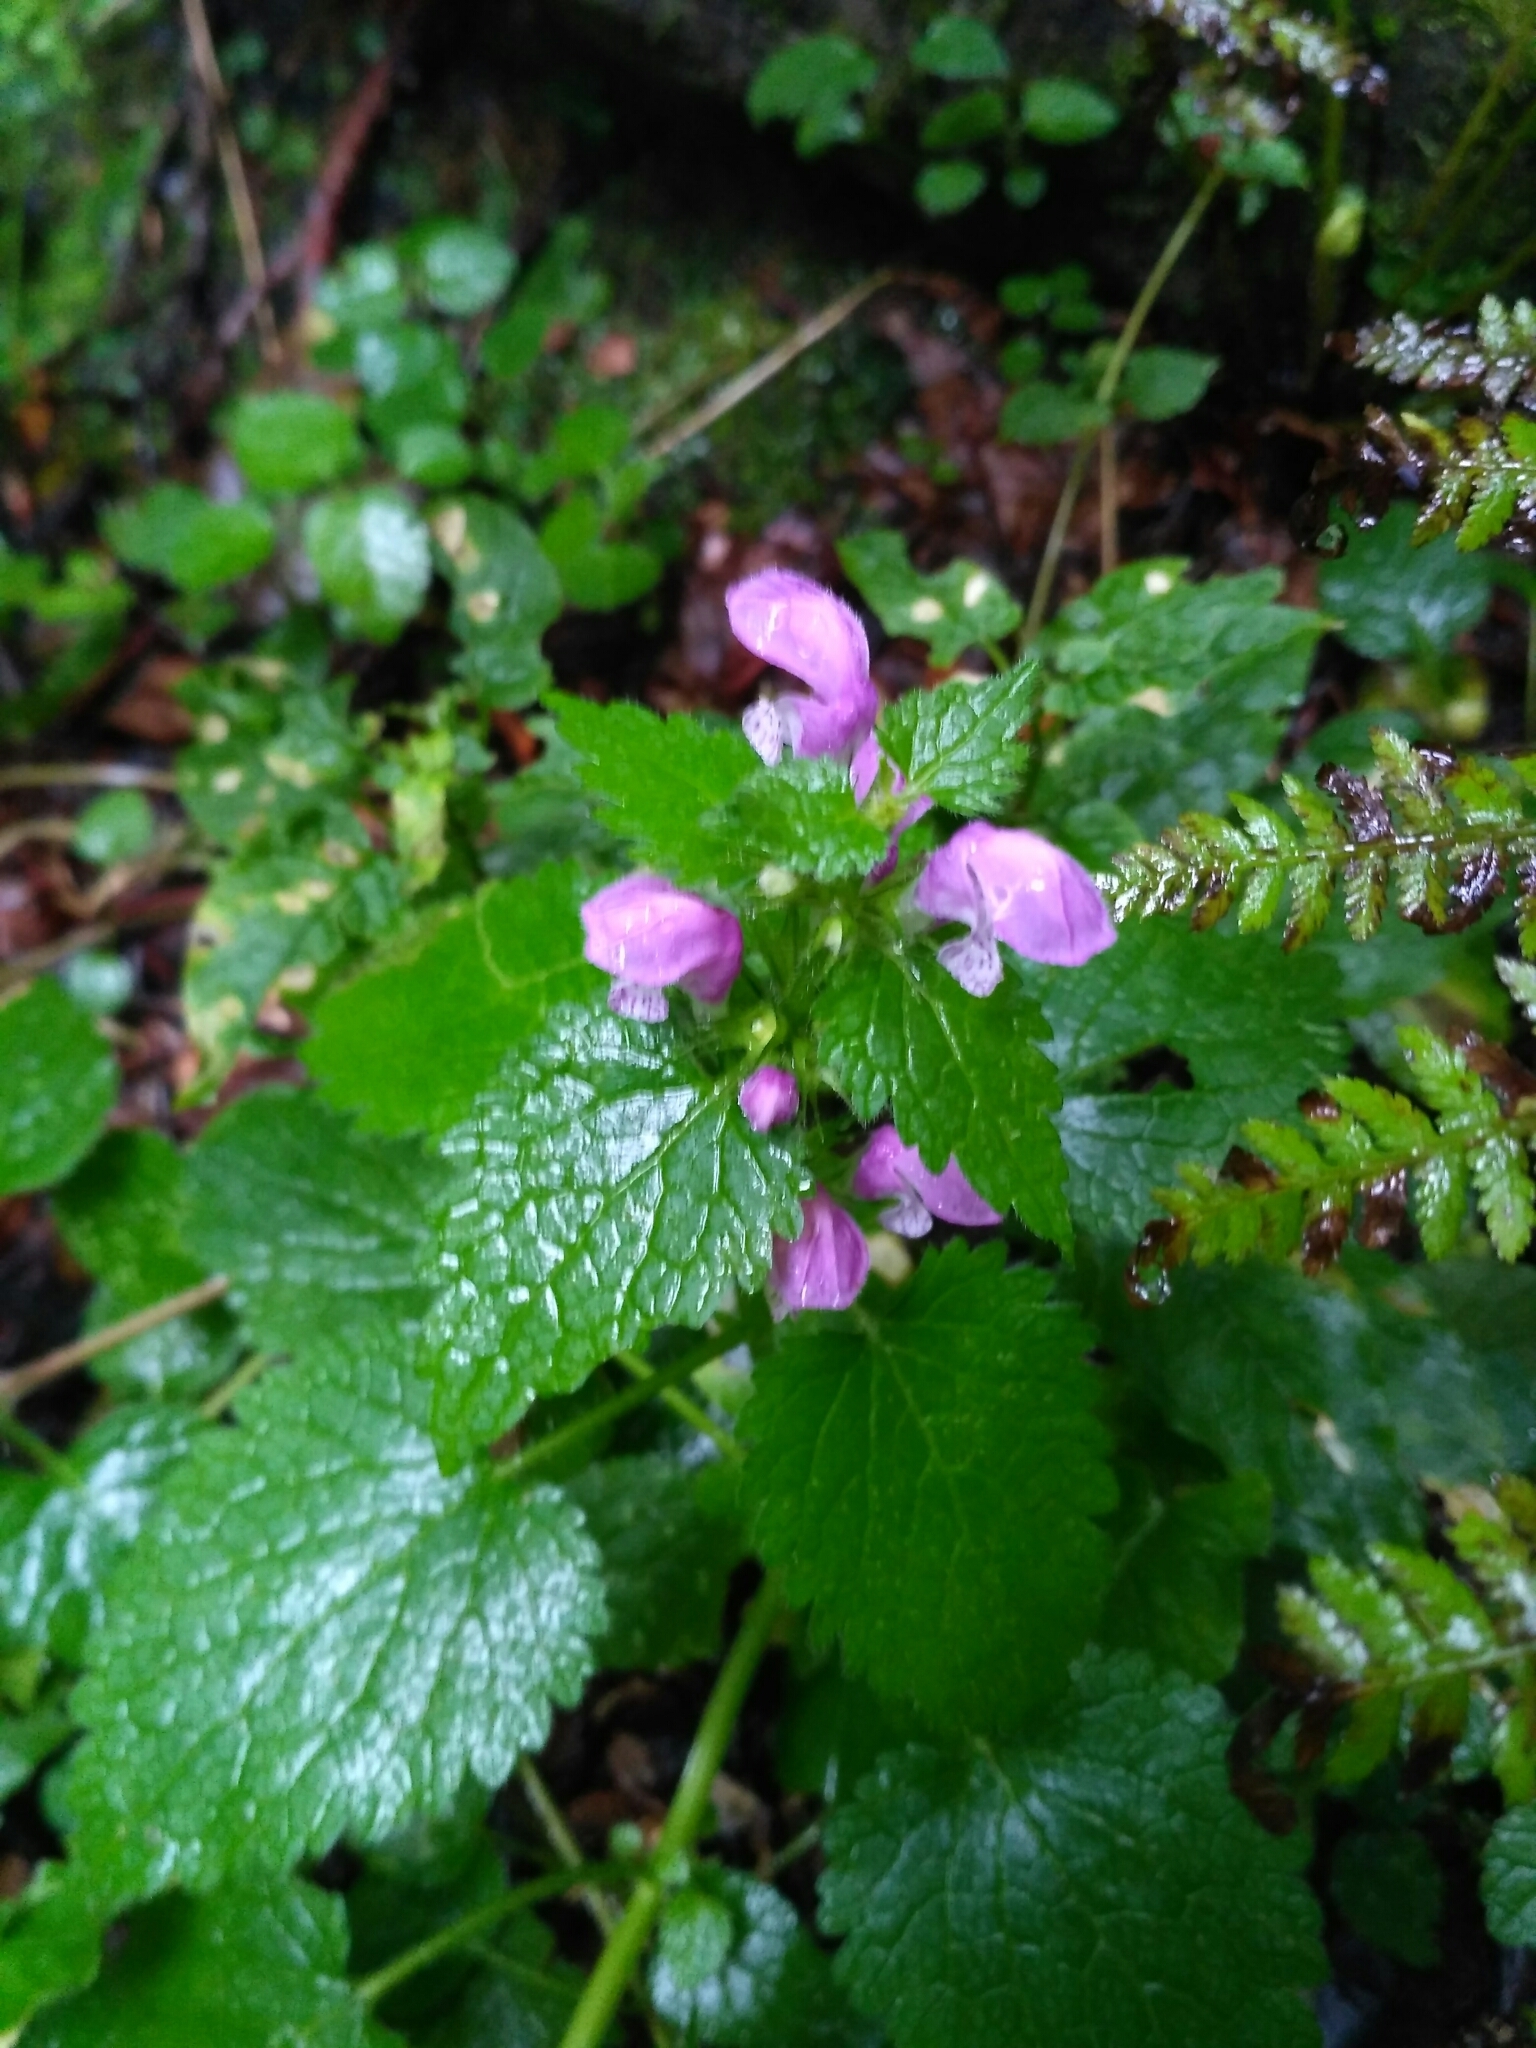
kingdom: Plantae
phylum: Tracheophyta
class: Magnoliopsida
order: Lamiales
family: Lamiaceae
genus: Lamium
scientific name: Lamium maculatum
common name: Spotted dead-nettle
